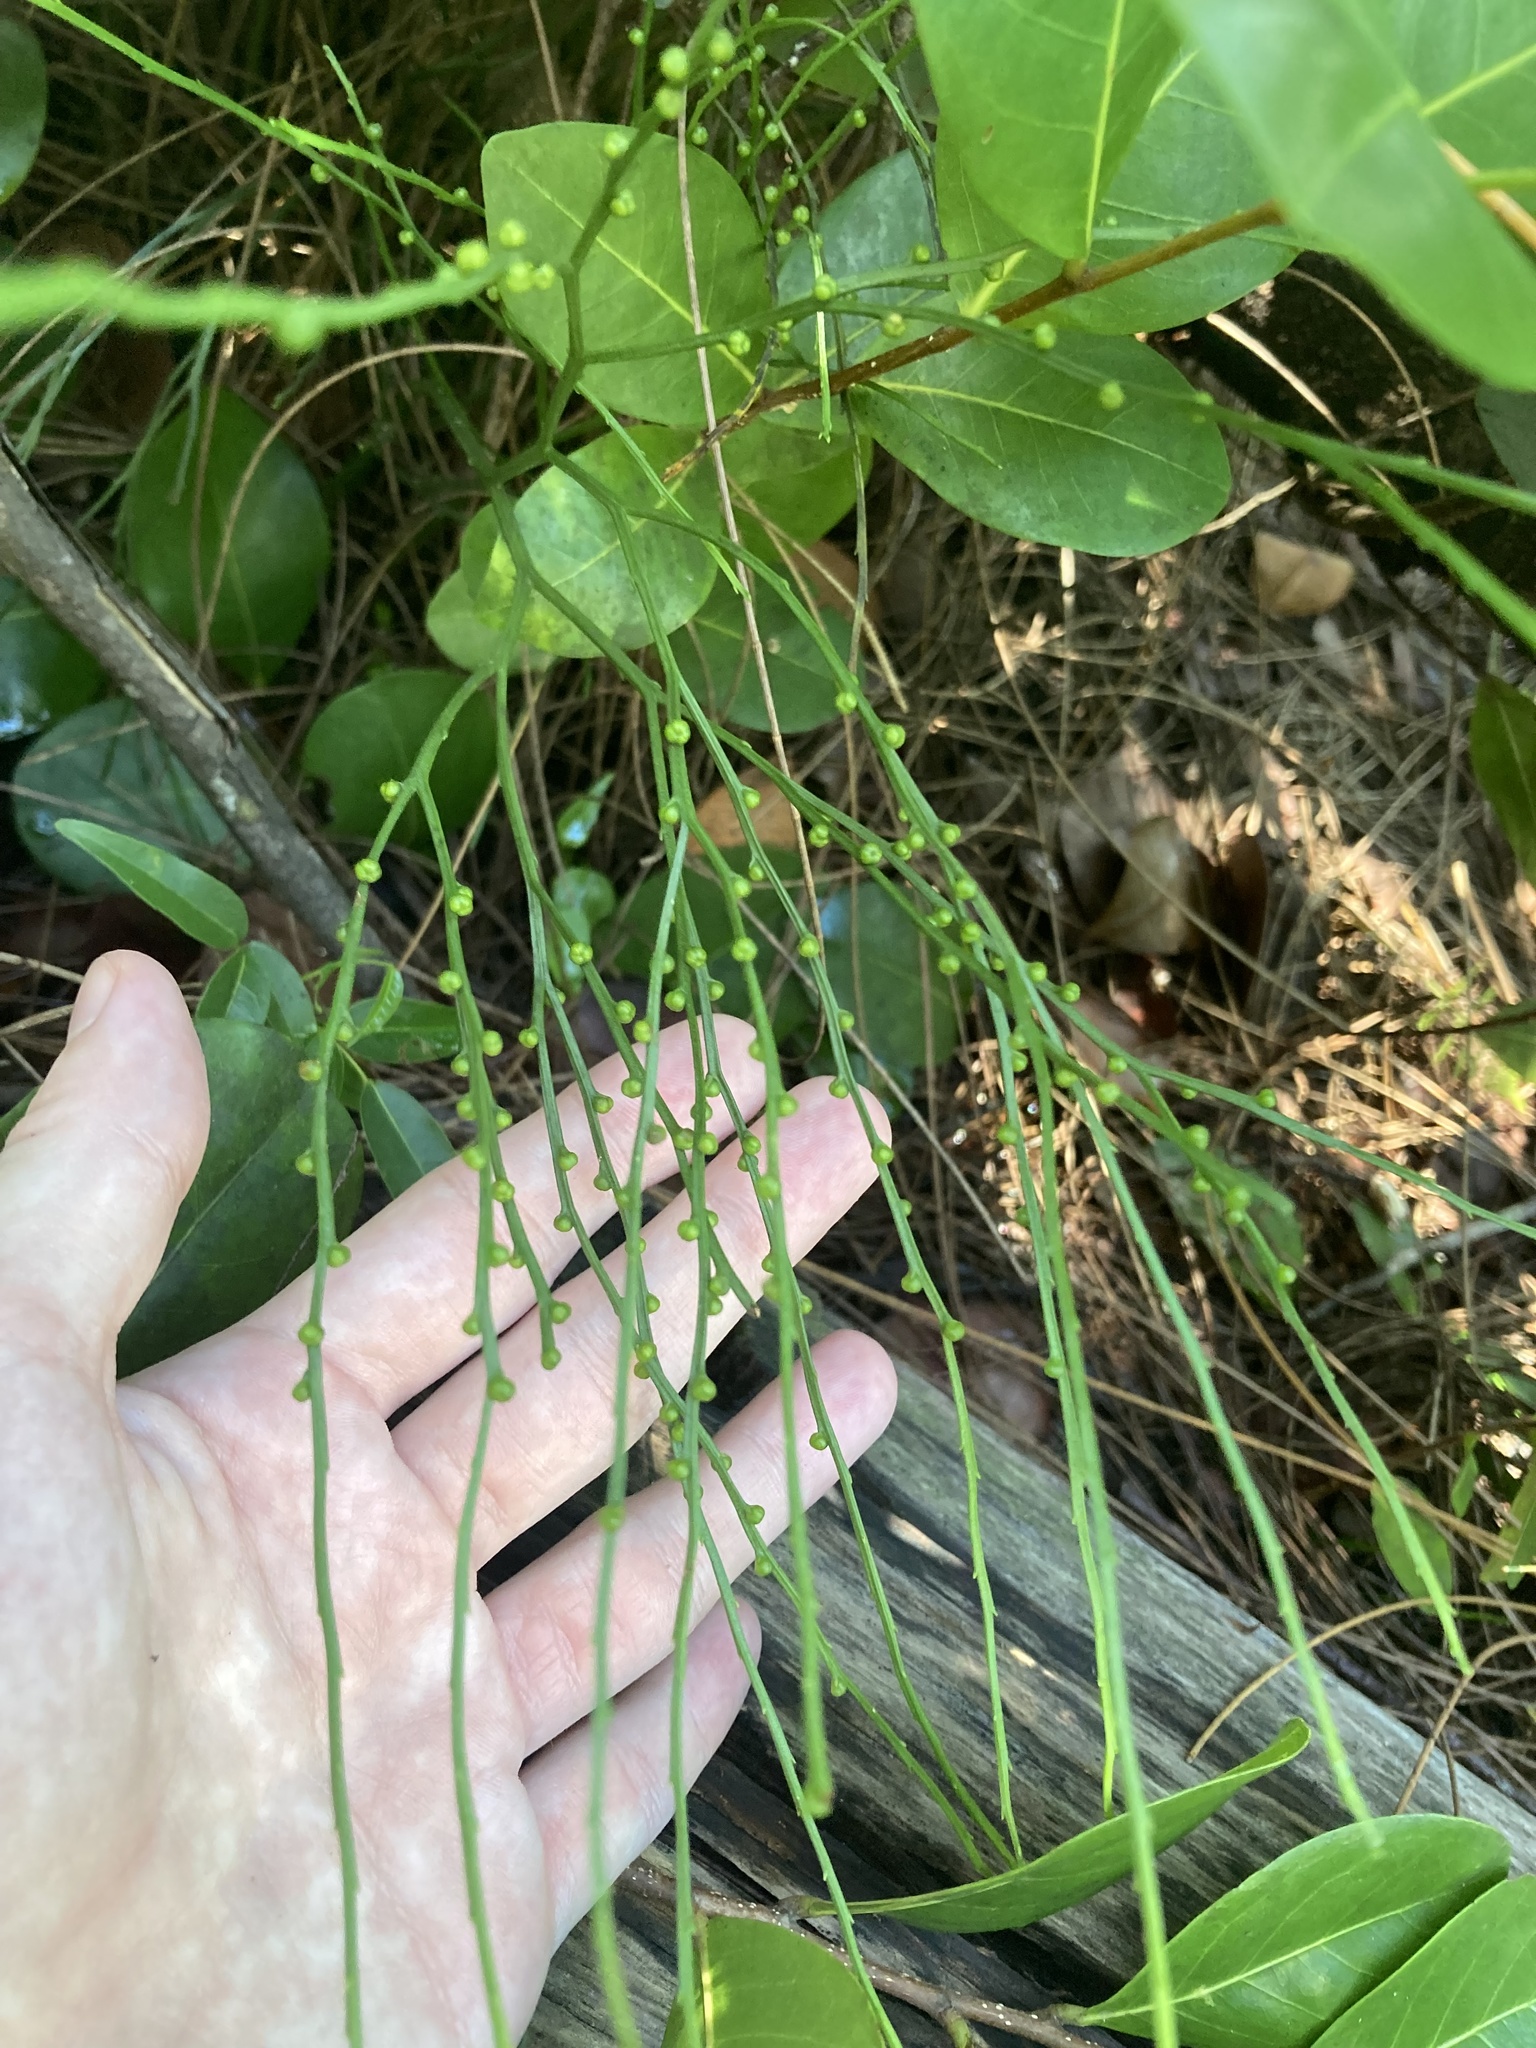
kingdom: Plantae
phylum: Tracheophyta
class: Polypodiopsida
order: Psilotales
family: Psilotaceae
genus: Psilotum
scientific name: Psilotum nudum
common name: Skeleton fork fern
